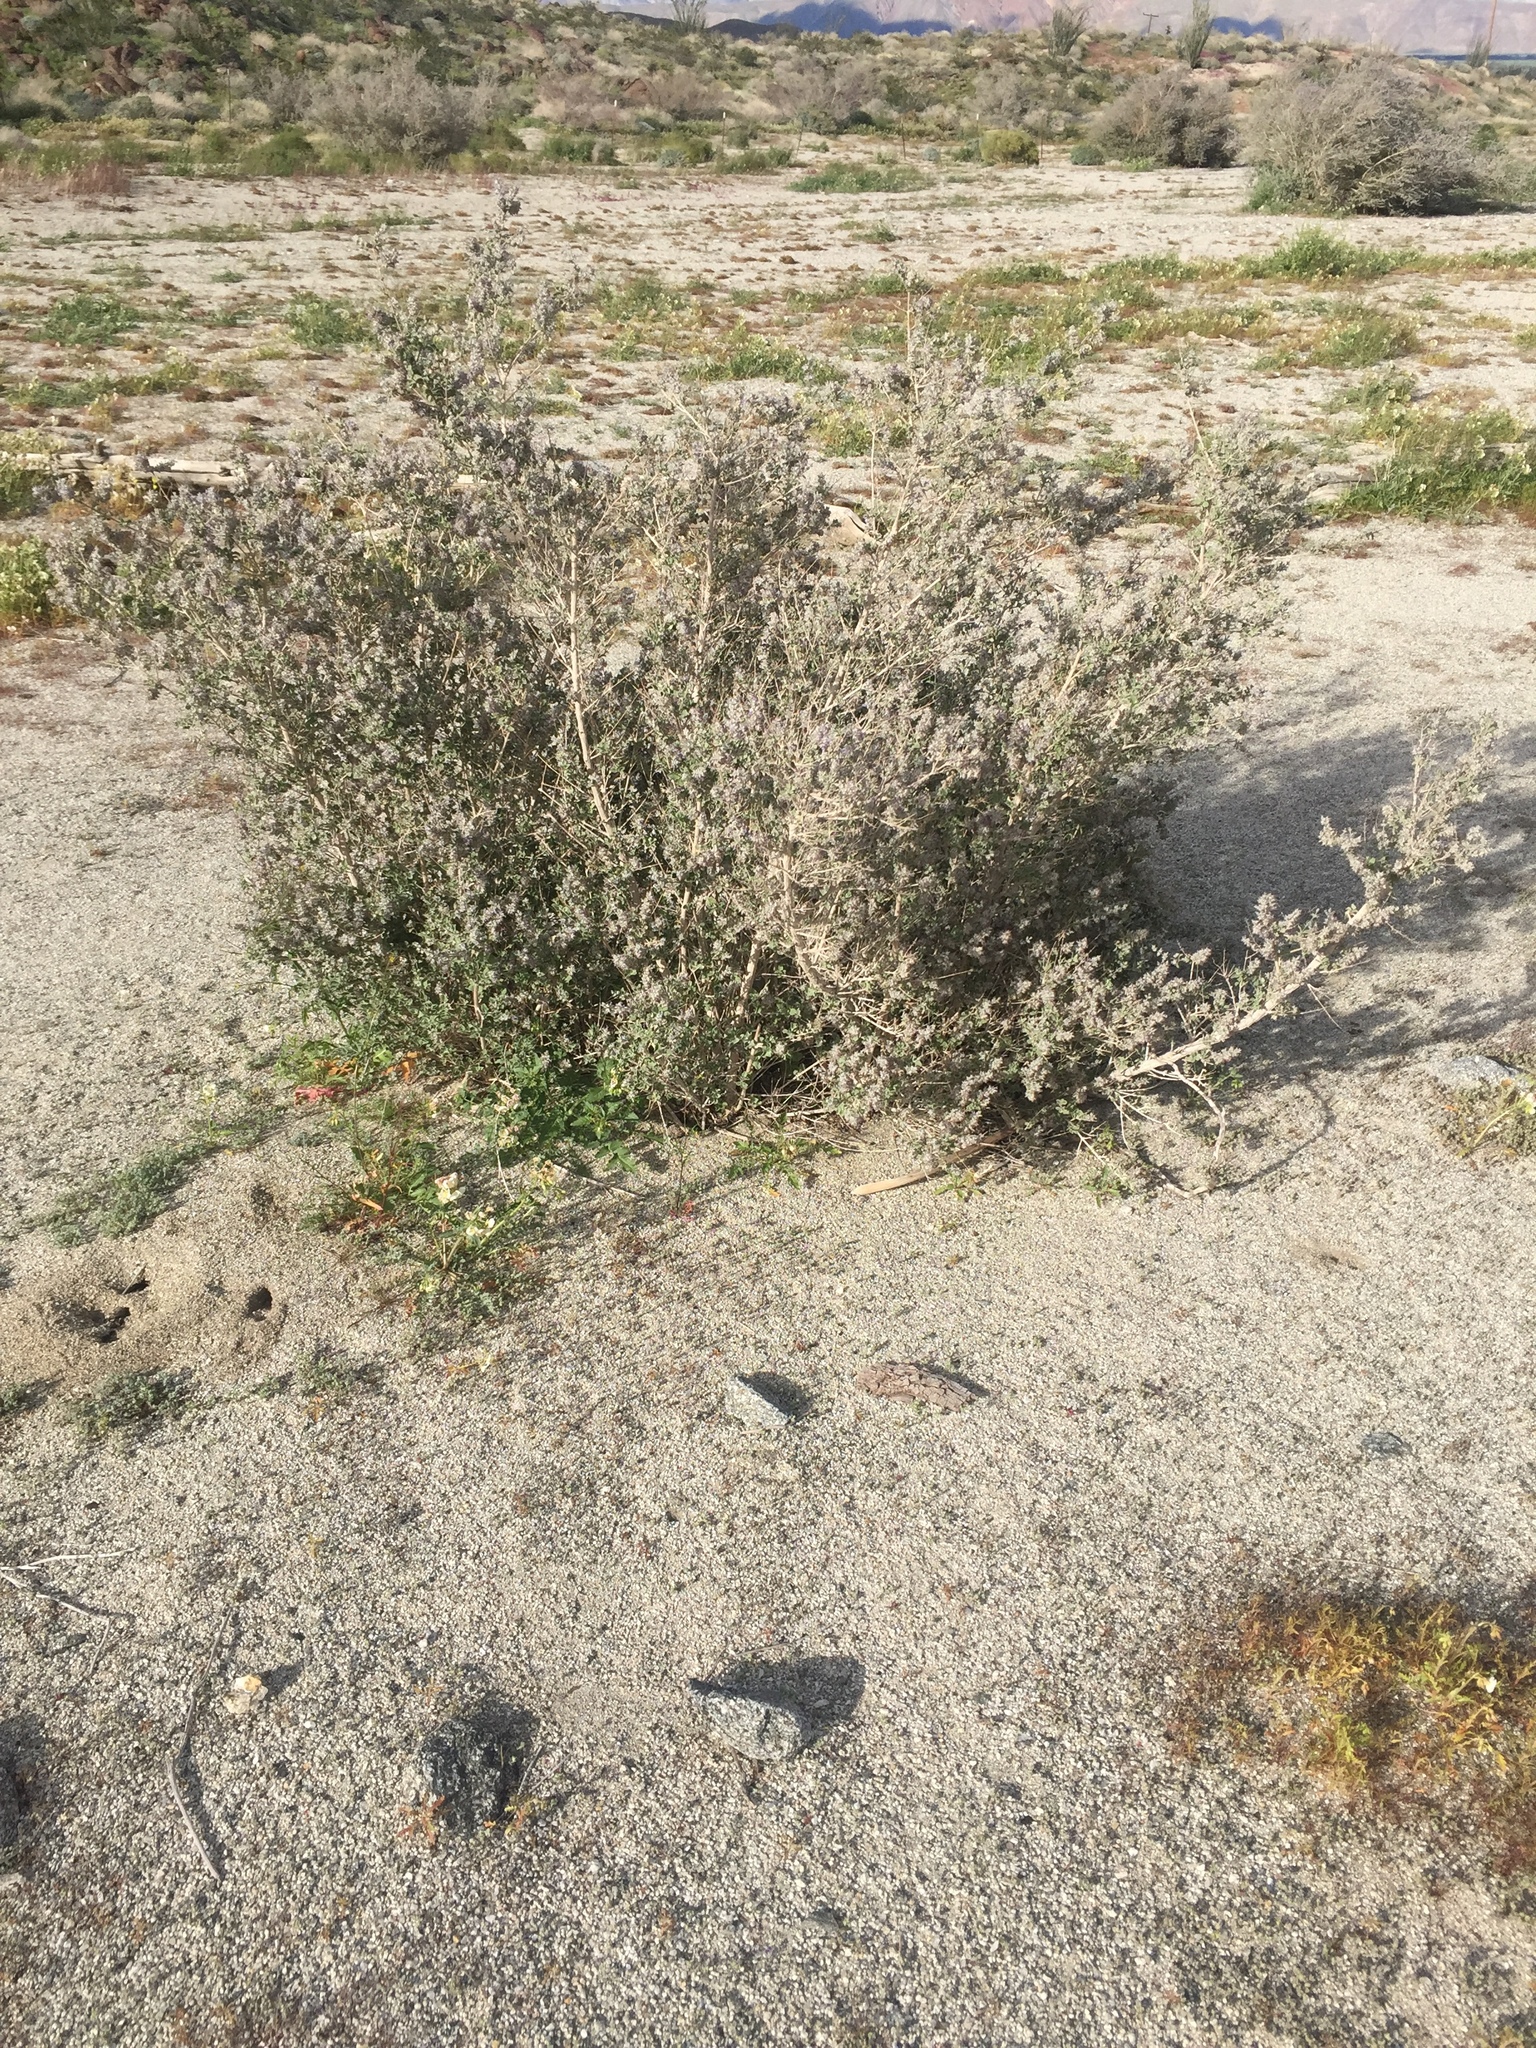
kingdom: Plantae
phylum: Tracheophyta
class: Magnoliopsida
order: Lamiales
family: Lamiaceae
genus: Condea
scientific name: Condea emoryi
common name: Chia
